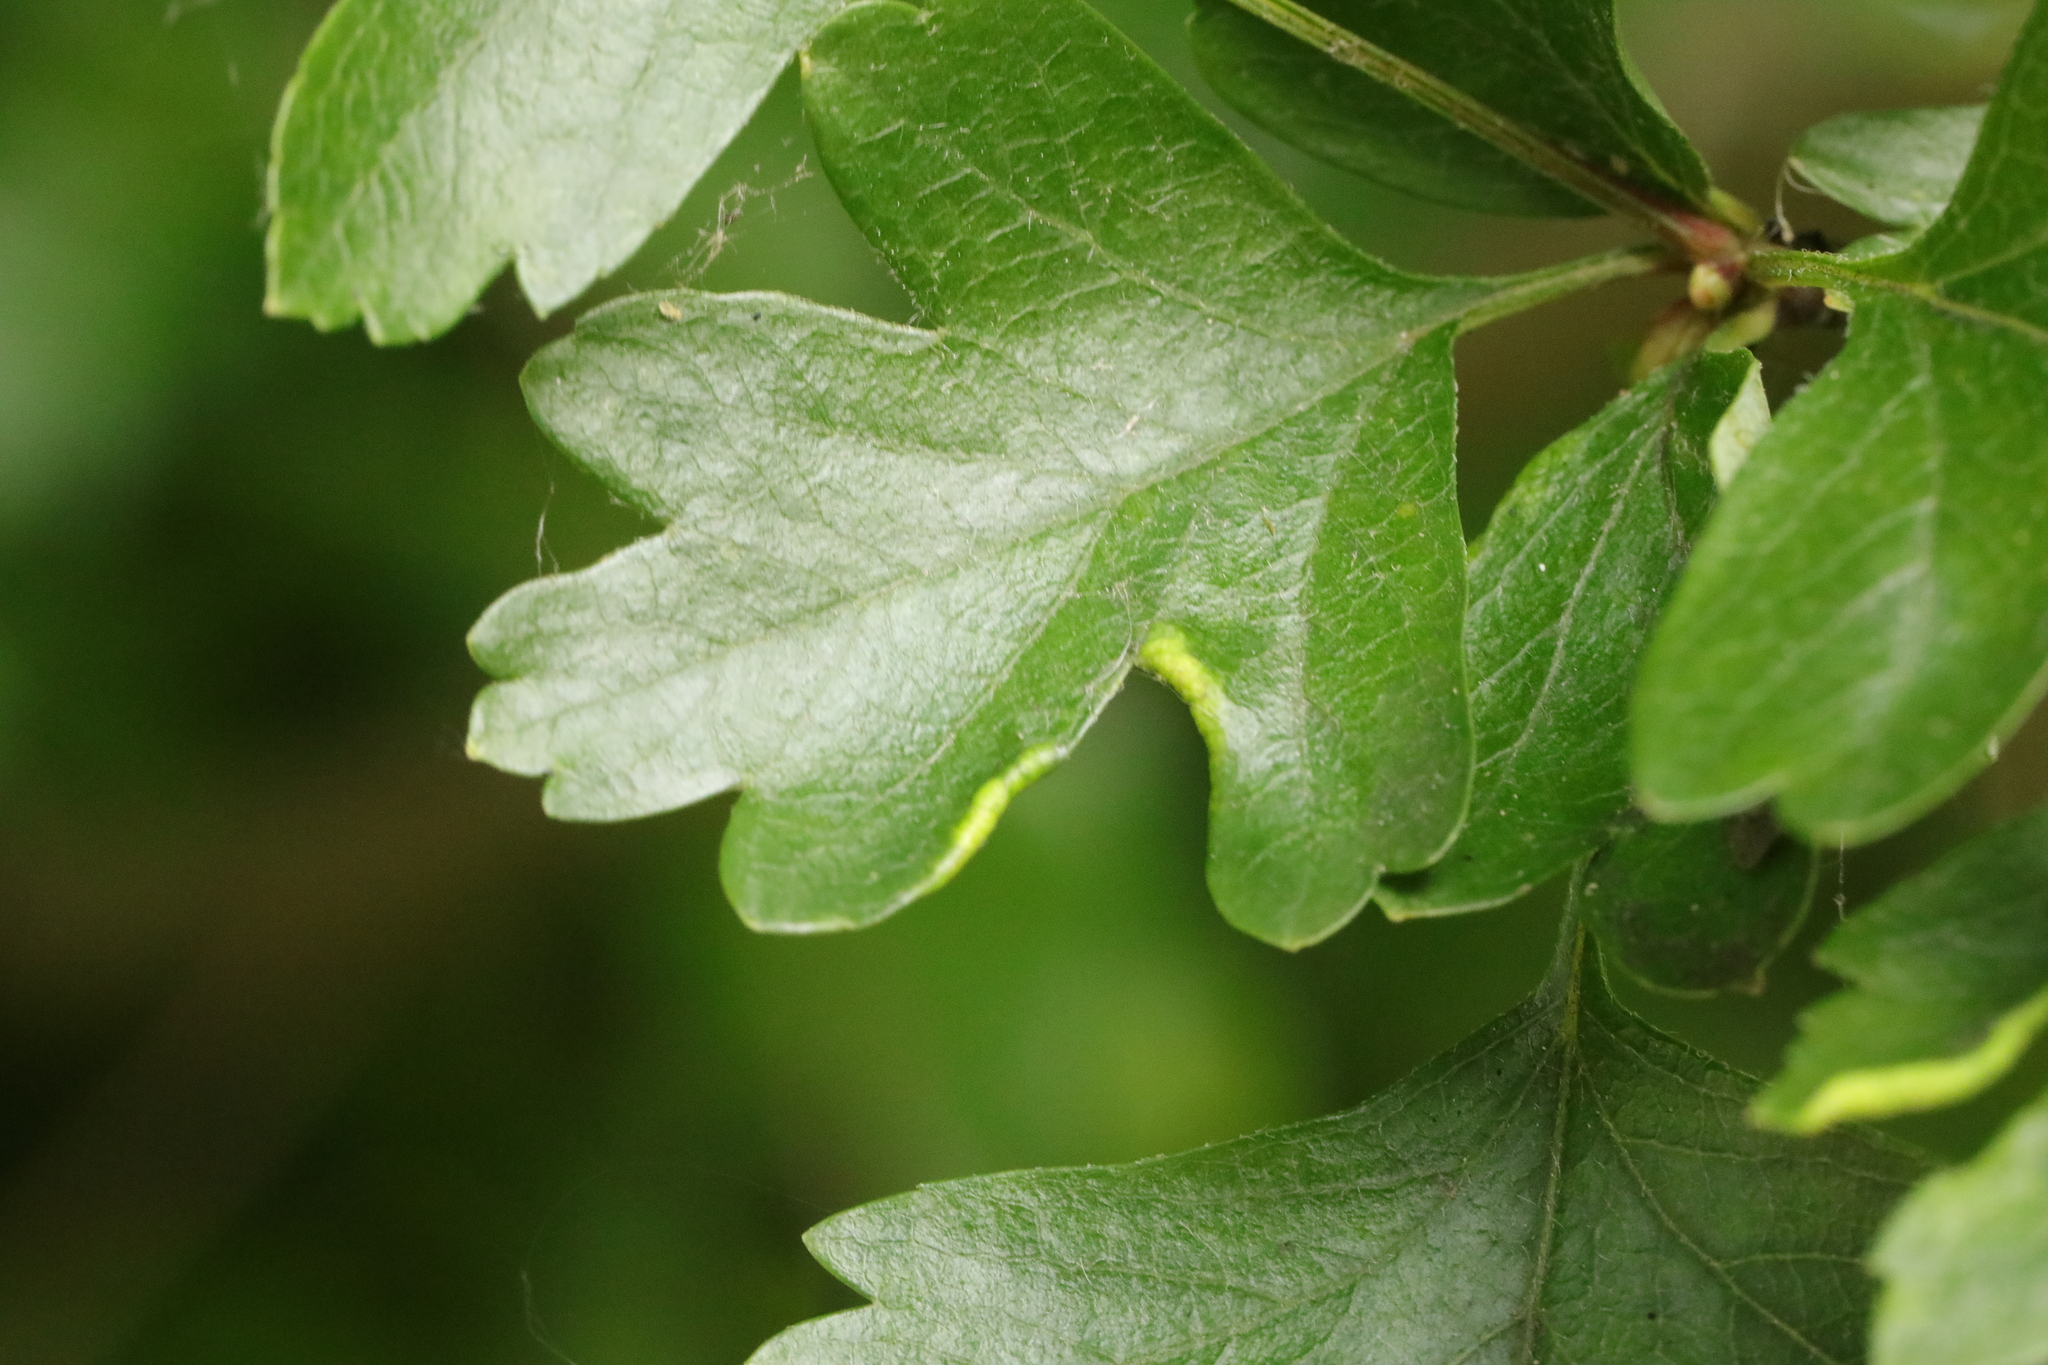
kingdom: Animalia
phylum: Arthropoda
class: Arachnida
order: Trombidiformes
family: Eriophyidae
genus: Phyllocoptes
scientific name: Phyllocoptes goniothorax
